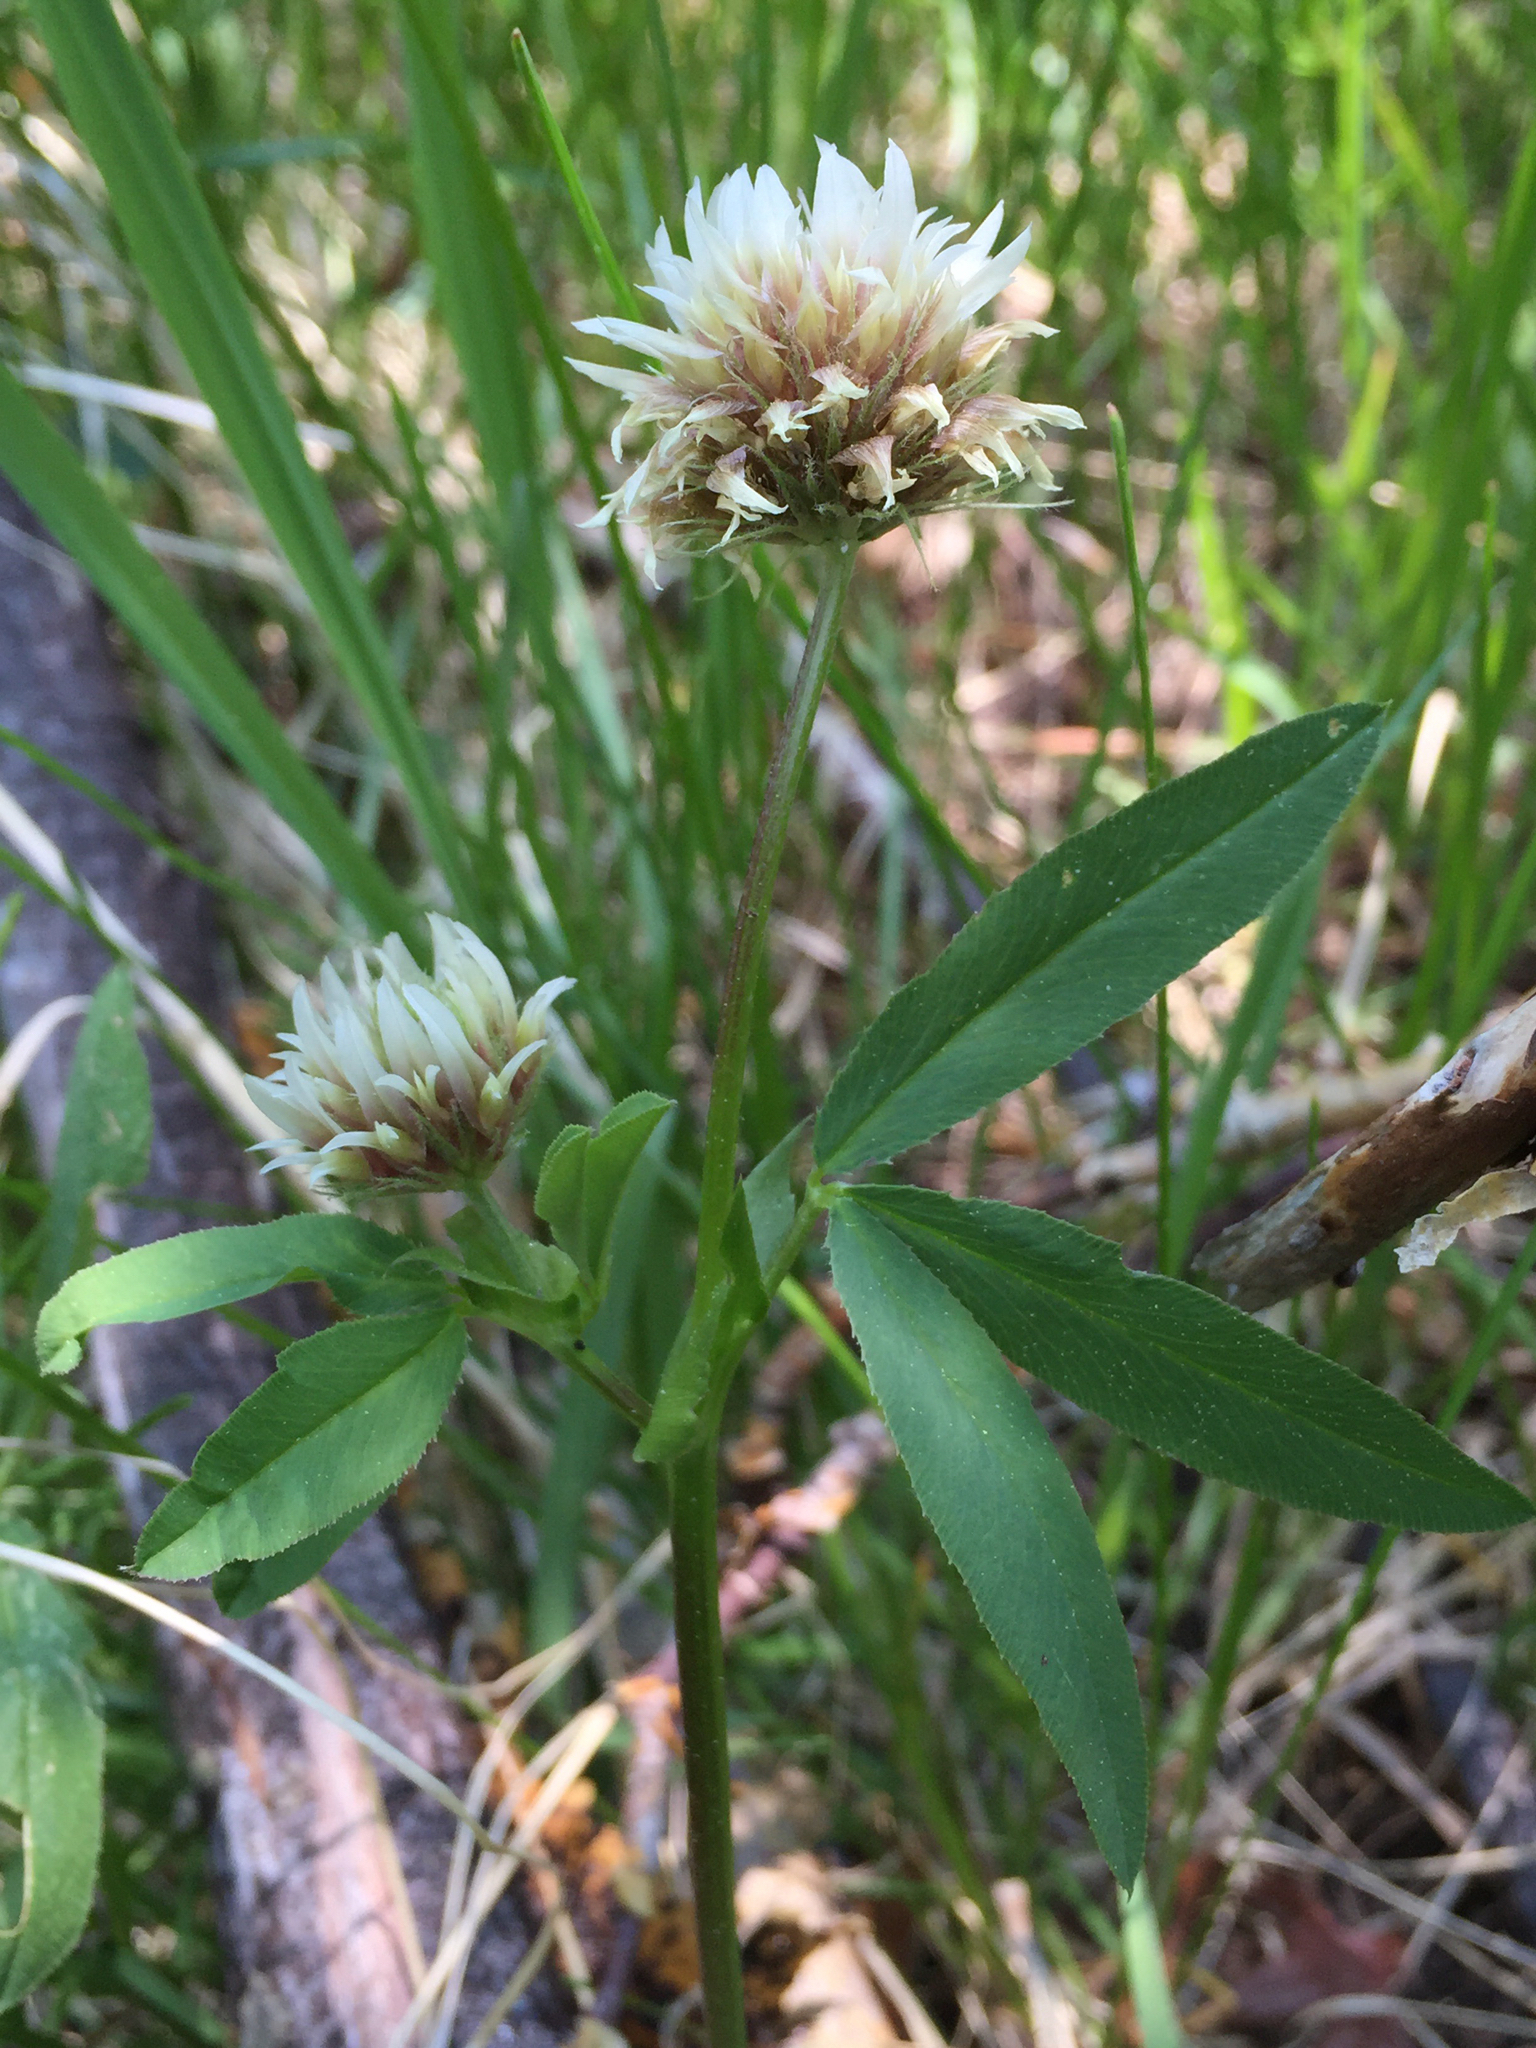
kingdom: Plantae
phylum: Tracheophyta
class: Magnoliopsida
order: Fabales
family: Fabaceae
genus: Trifolium
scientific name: Trifolium longipes
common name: Long-stalk clover
